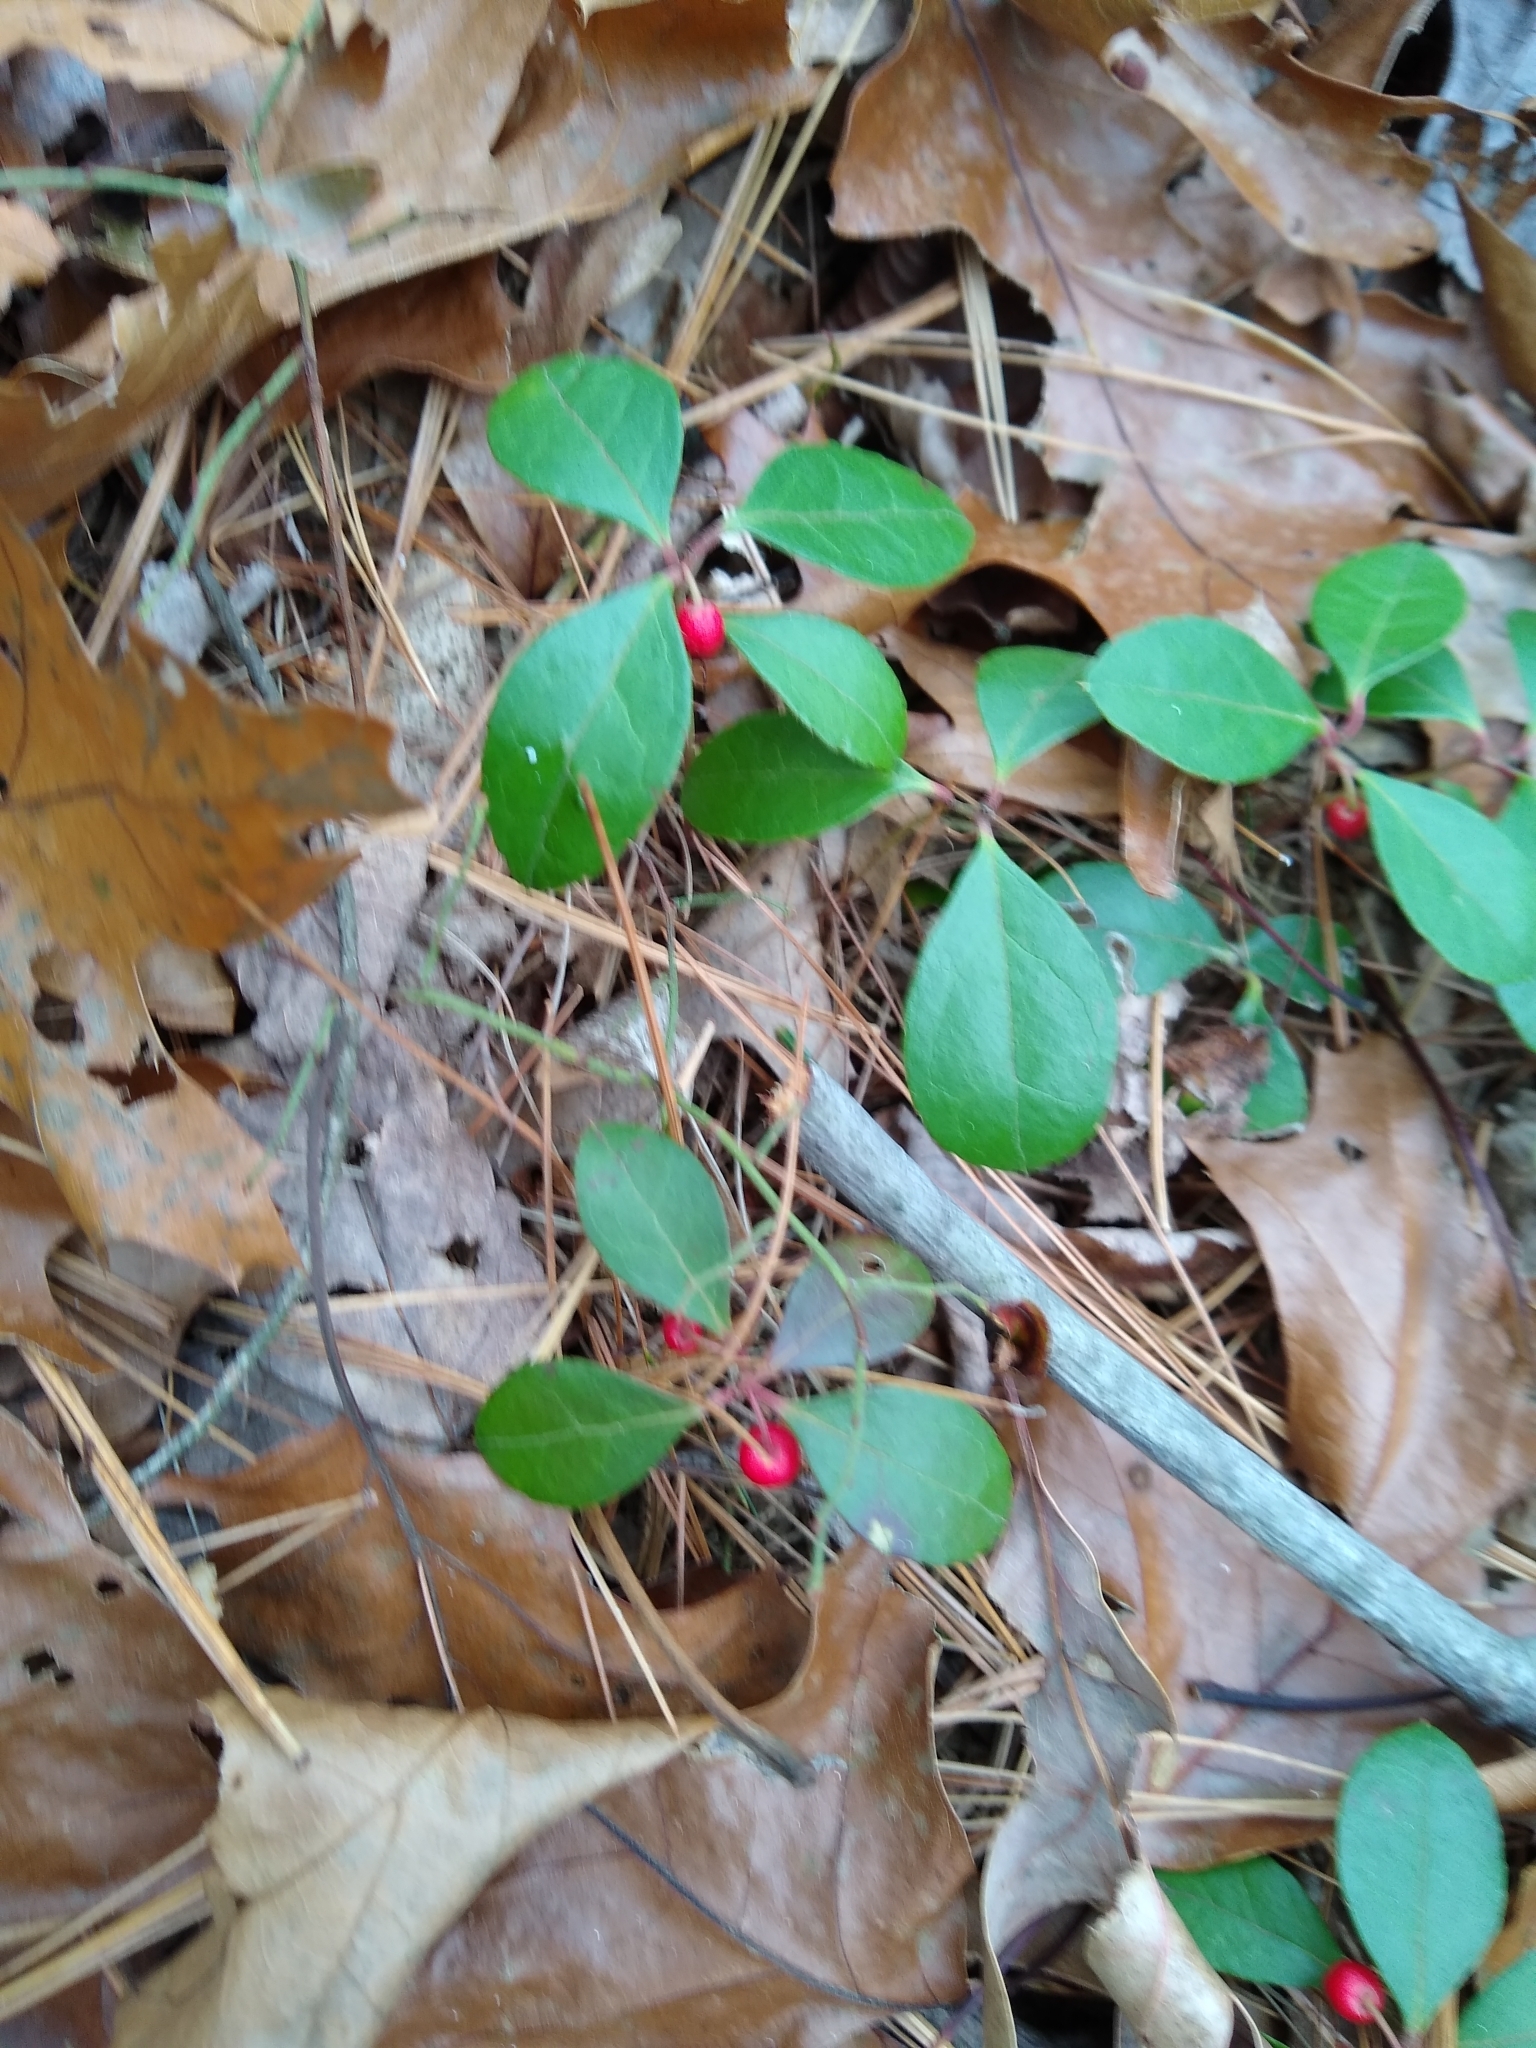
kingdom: Plantae
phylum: Tracheophyta
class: Magnoliopsida
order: Ericales
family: Ericaceae
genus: Gaultheria
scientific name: Gaultheria procumbens
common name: Checkerberry
